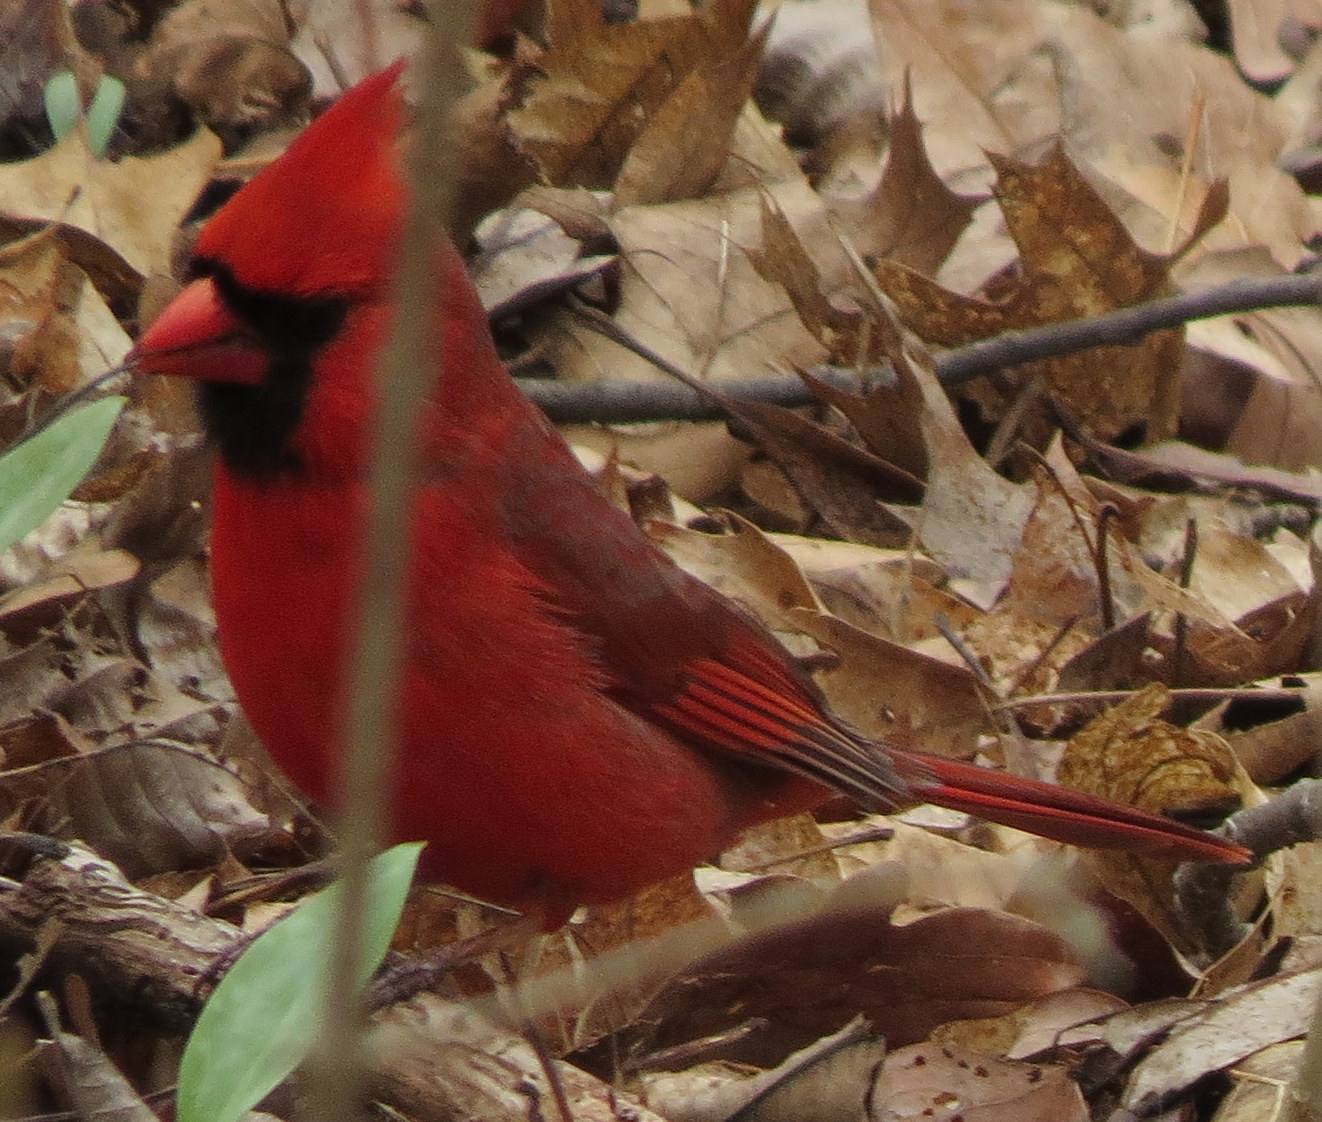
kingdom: Animalia
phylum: Chordata
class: Aves
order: Passeriformes
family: Cardinalidae
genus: Cardinalis
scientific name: Cardinalis cardinalis
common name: Northern cardinal
